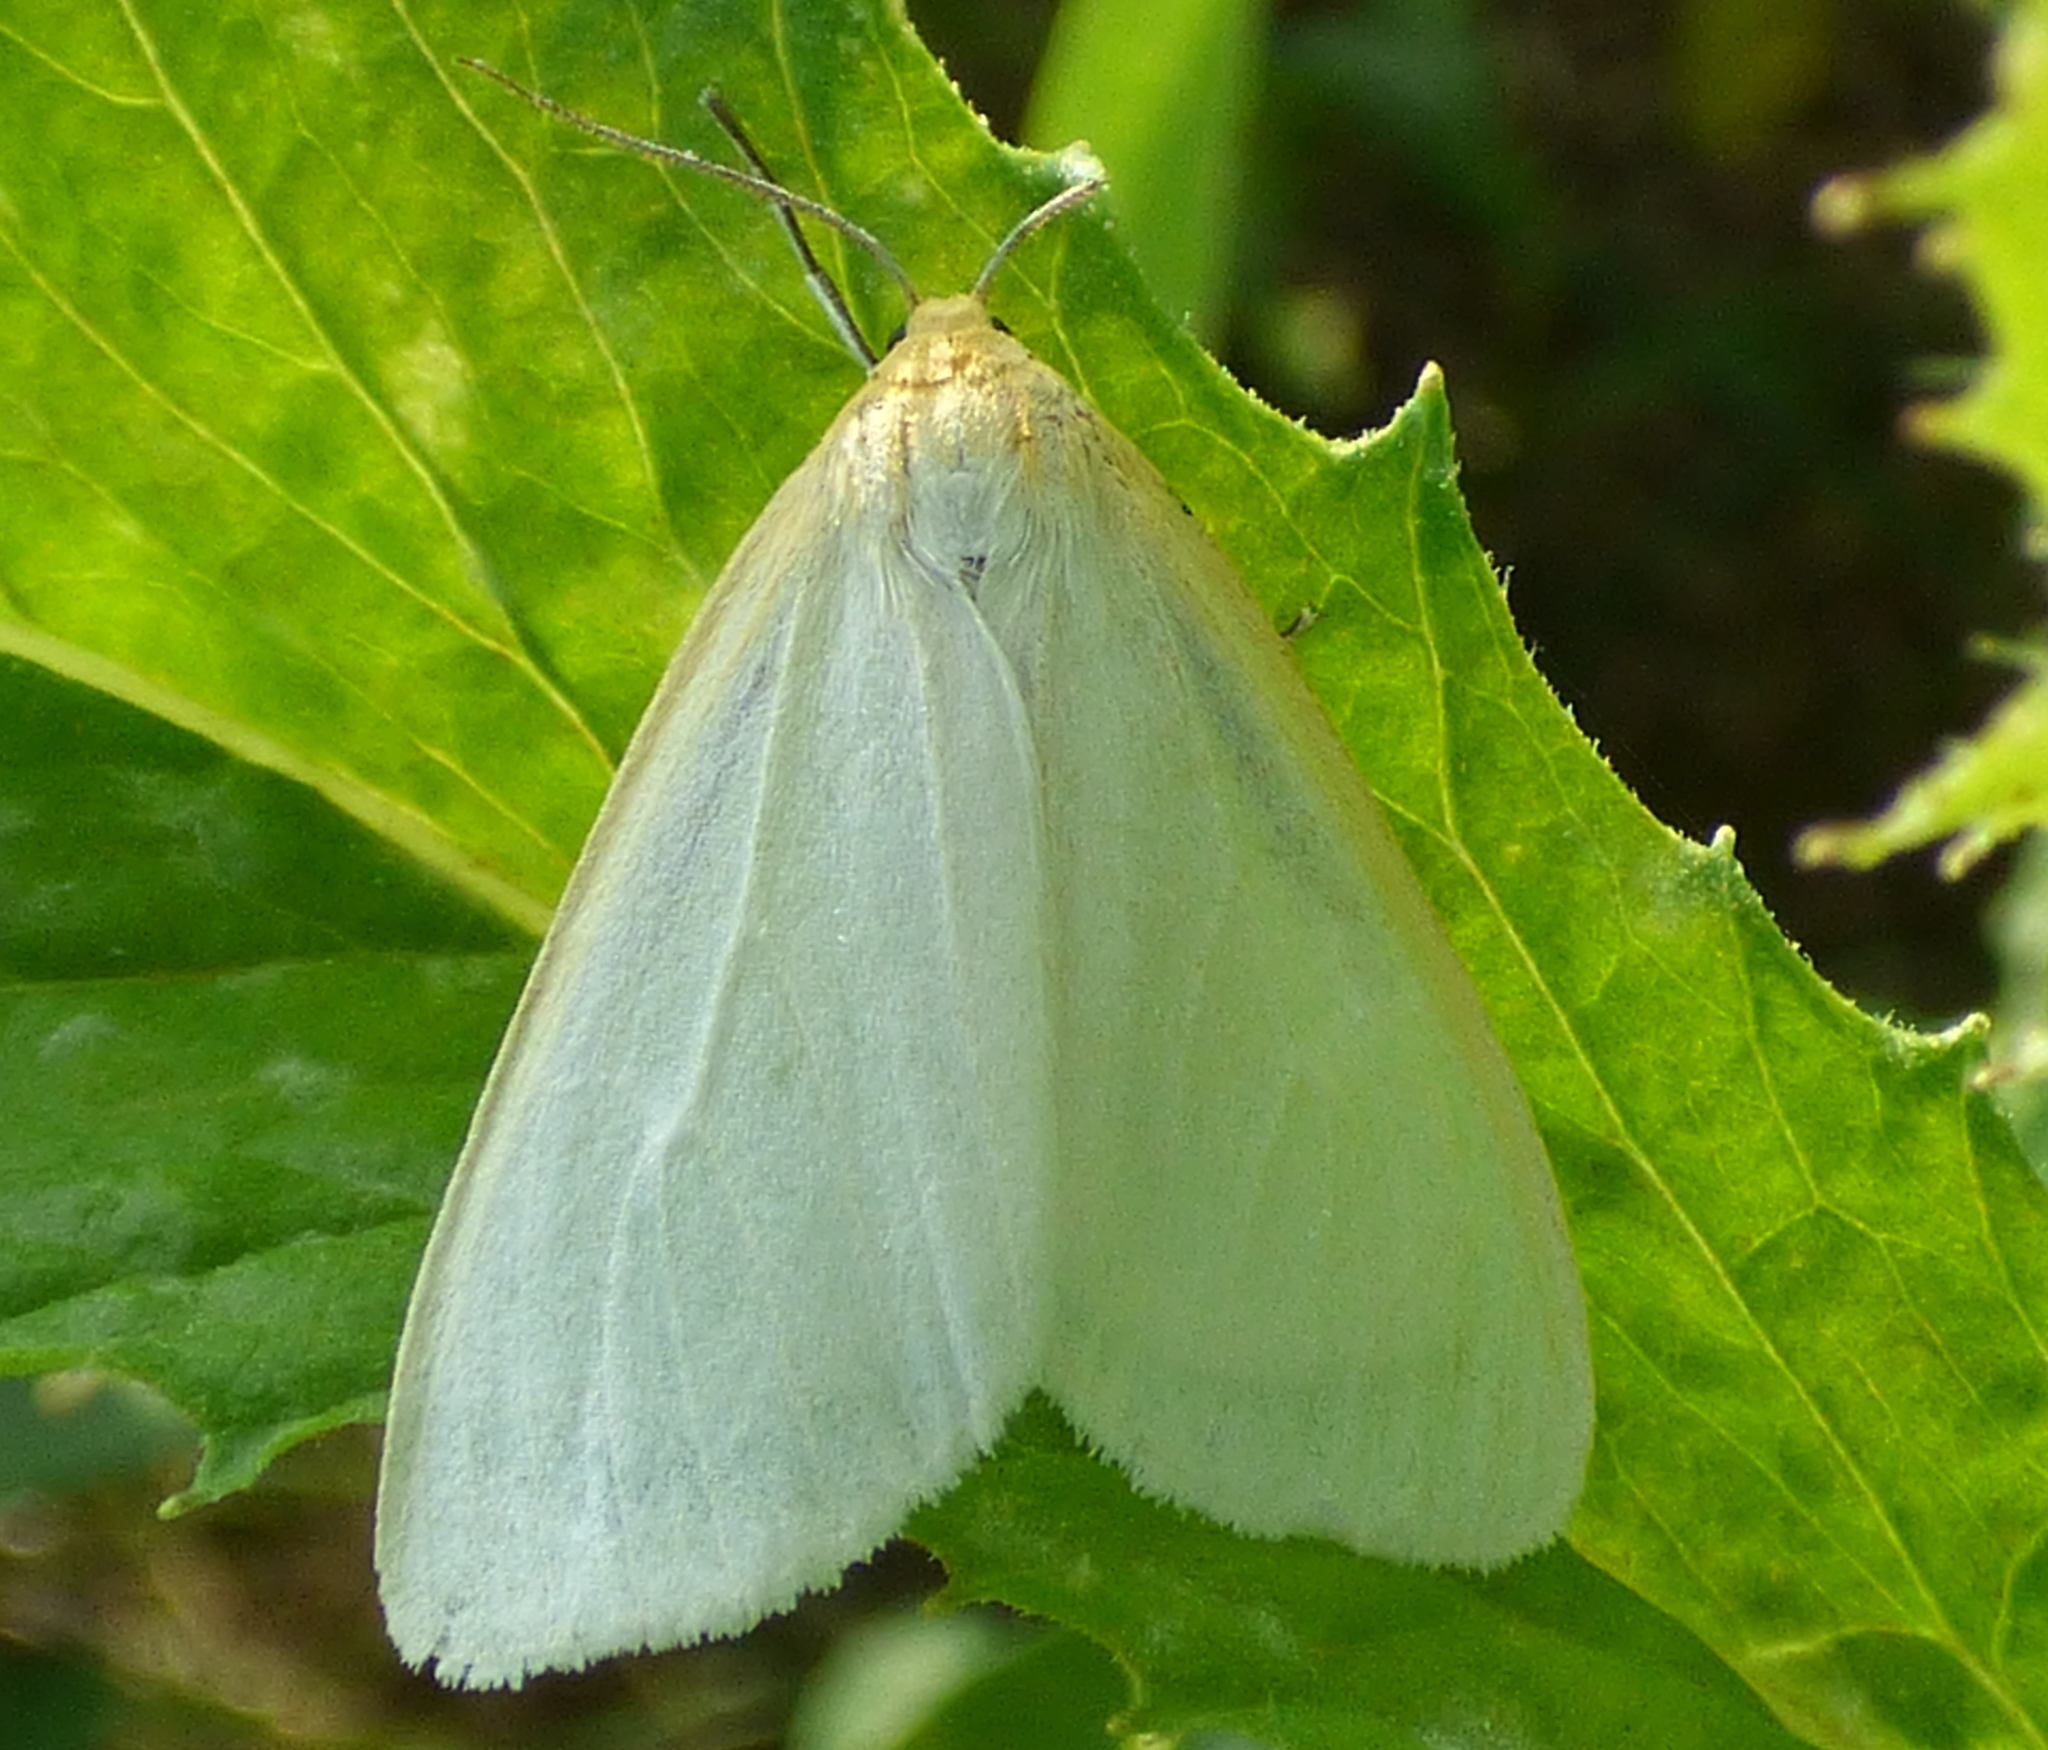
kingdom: Animalia
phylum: Arthropoda
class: Insecta
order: Lepidoptera
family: Erebidae
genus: Cycnia
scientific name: Cycnia tenera
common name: Delicate cycnia moth
